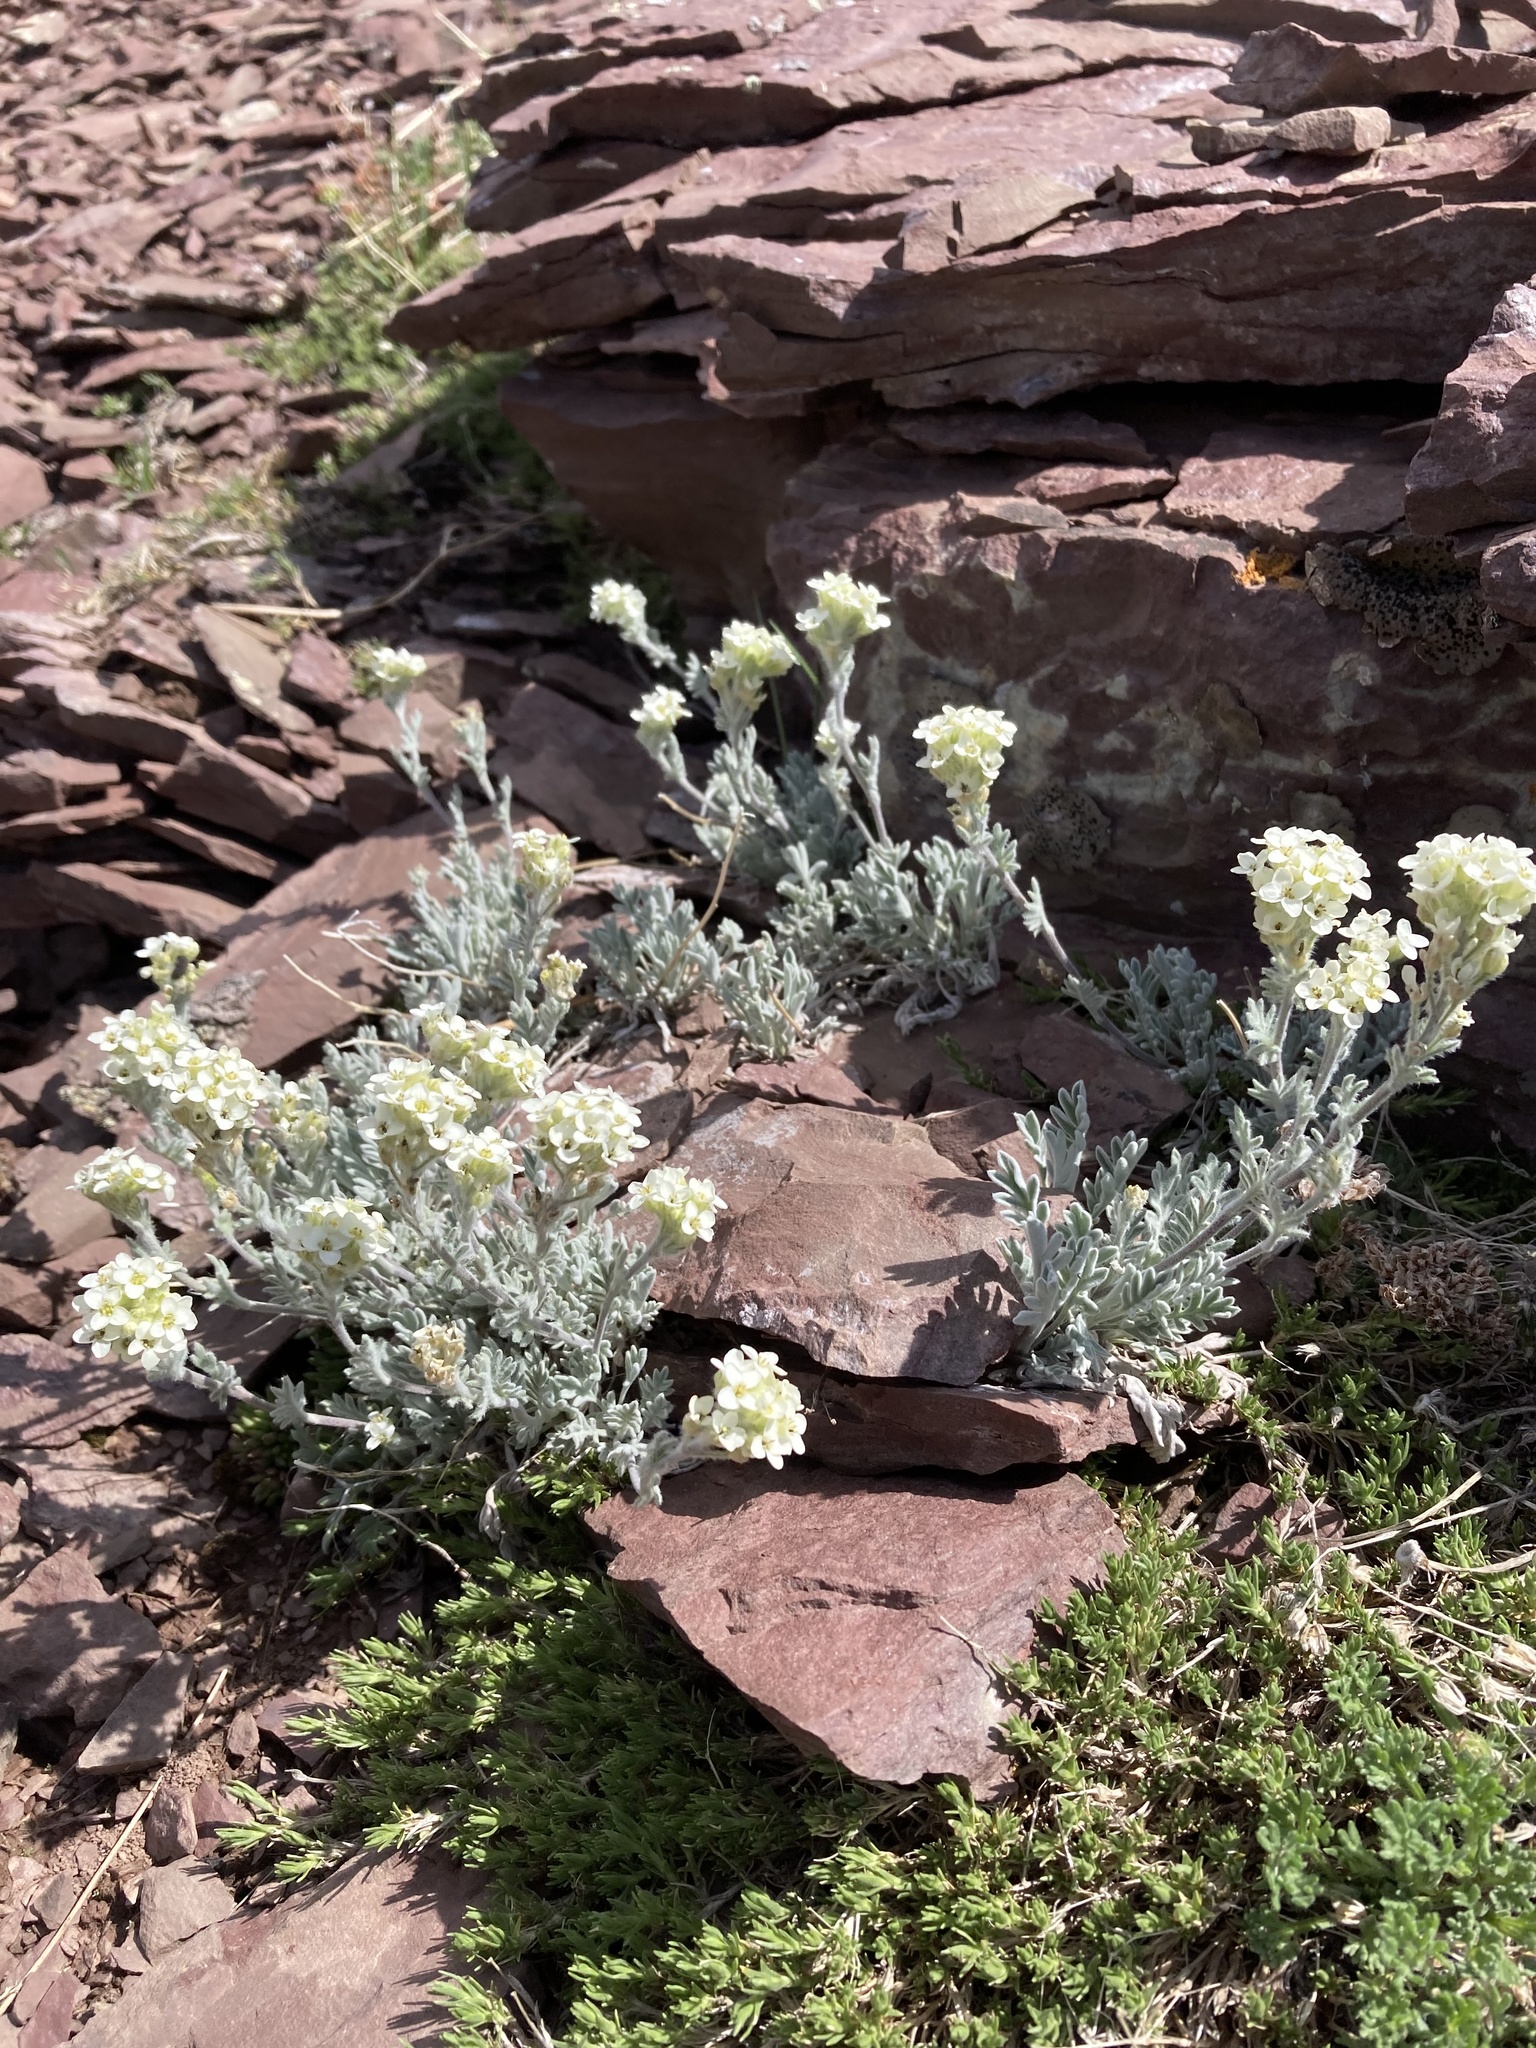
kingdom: Plantae
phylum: Tracheophyta
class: Magnoliopsida
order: Brassicales
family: Brassicaceae
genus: Smelowskia
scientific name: Smelowskia americana
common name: American false candytuft
